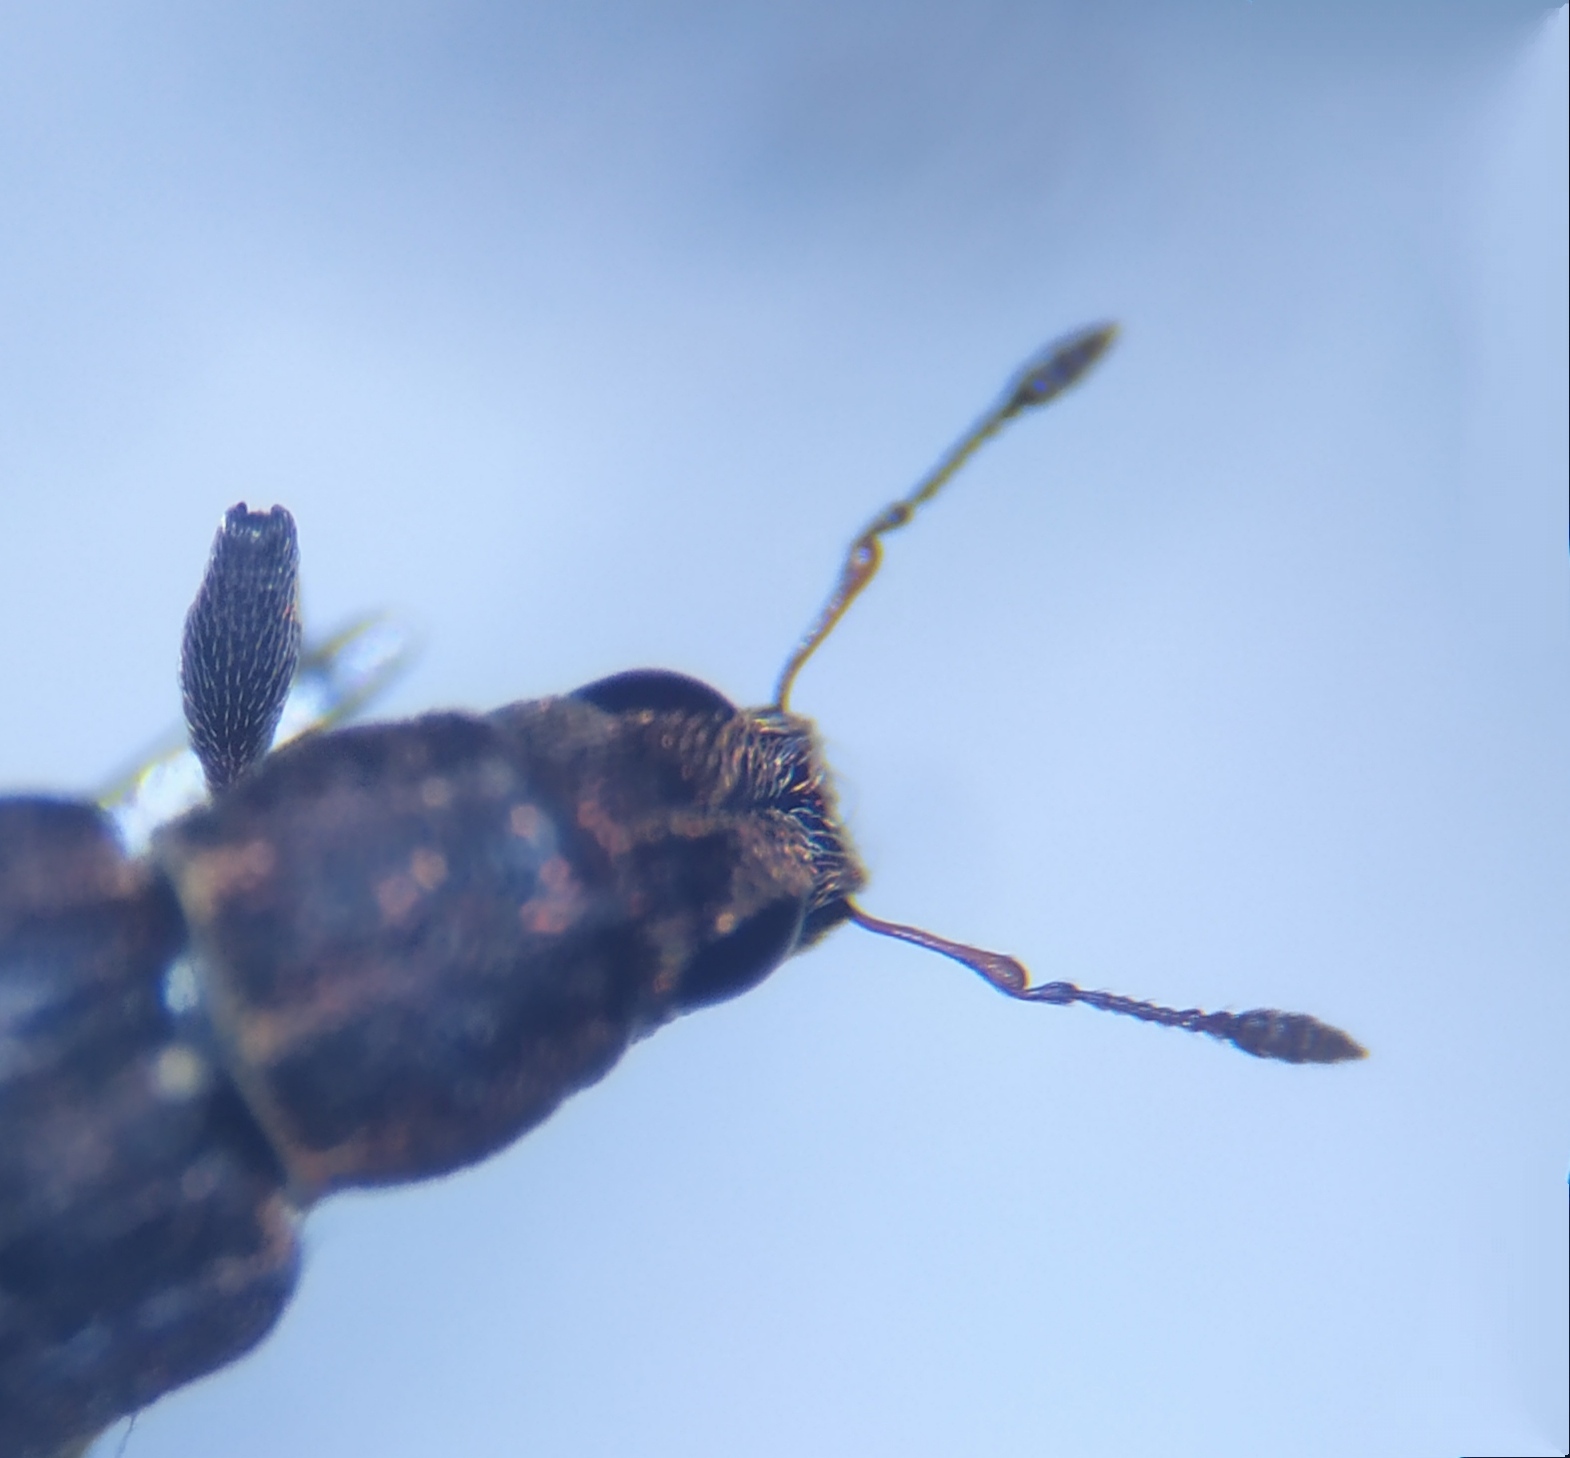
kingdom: Animalia
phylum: Arthropoda
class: Insecta
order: Coleoptera
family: Curculionidae
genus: Sitona
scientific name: Sitona sulcifrons
